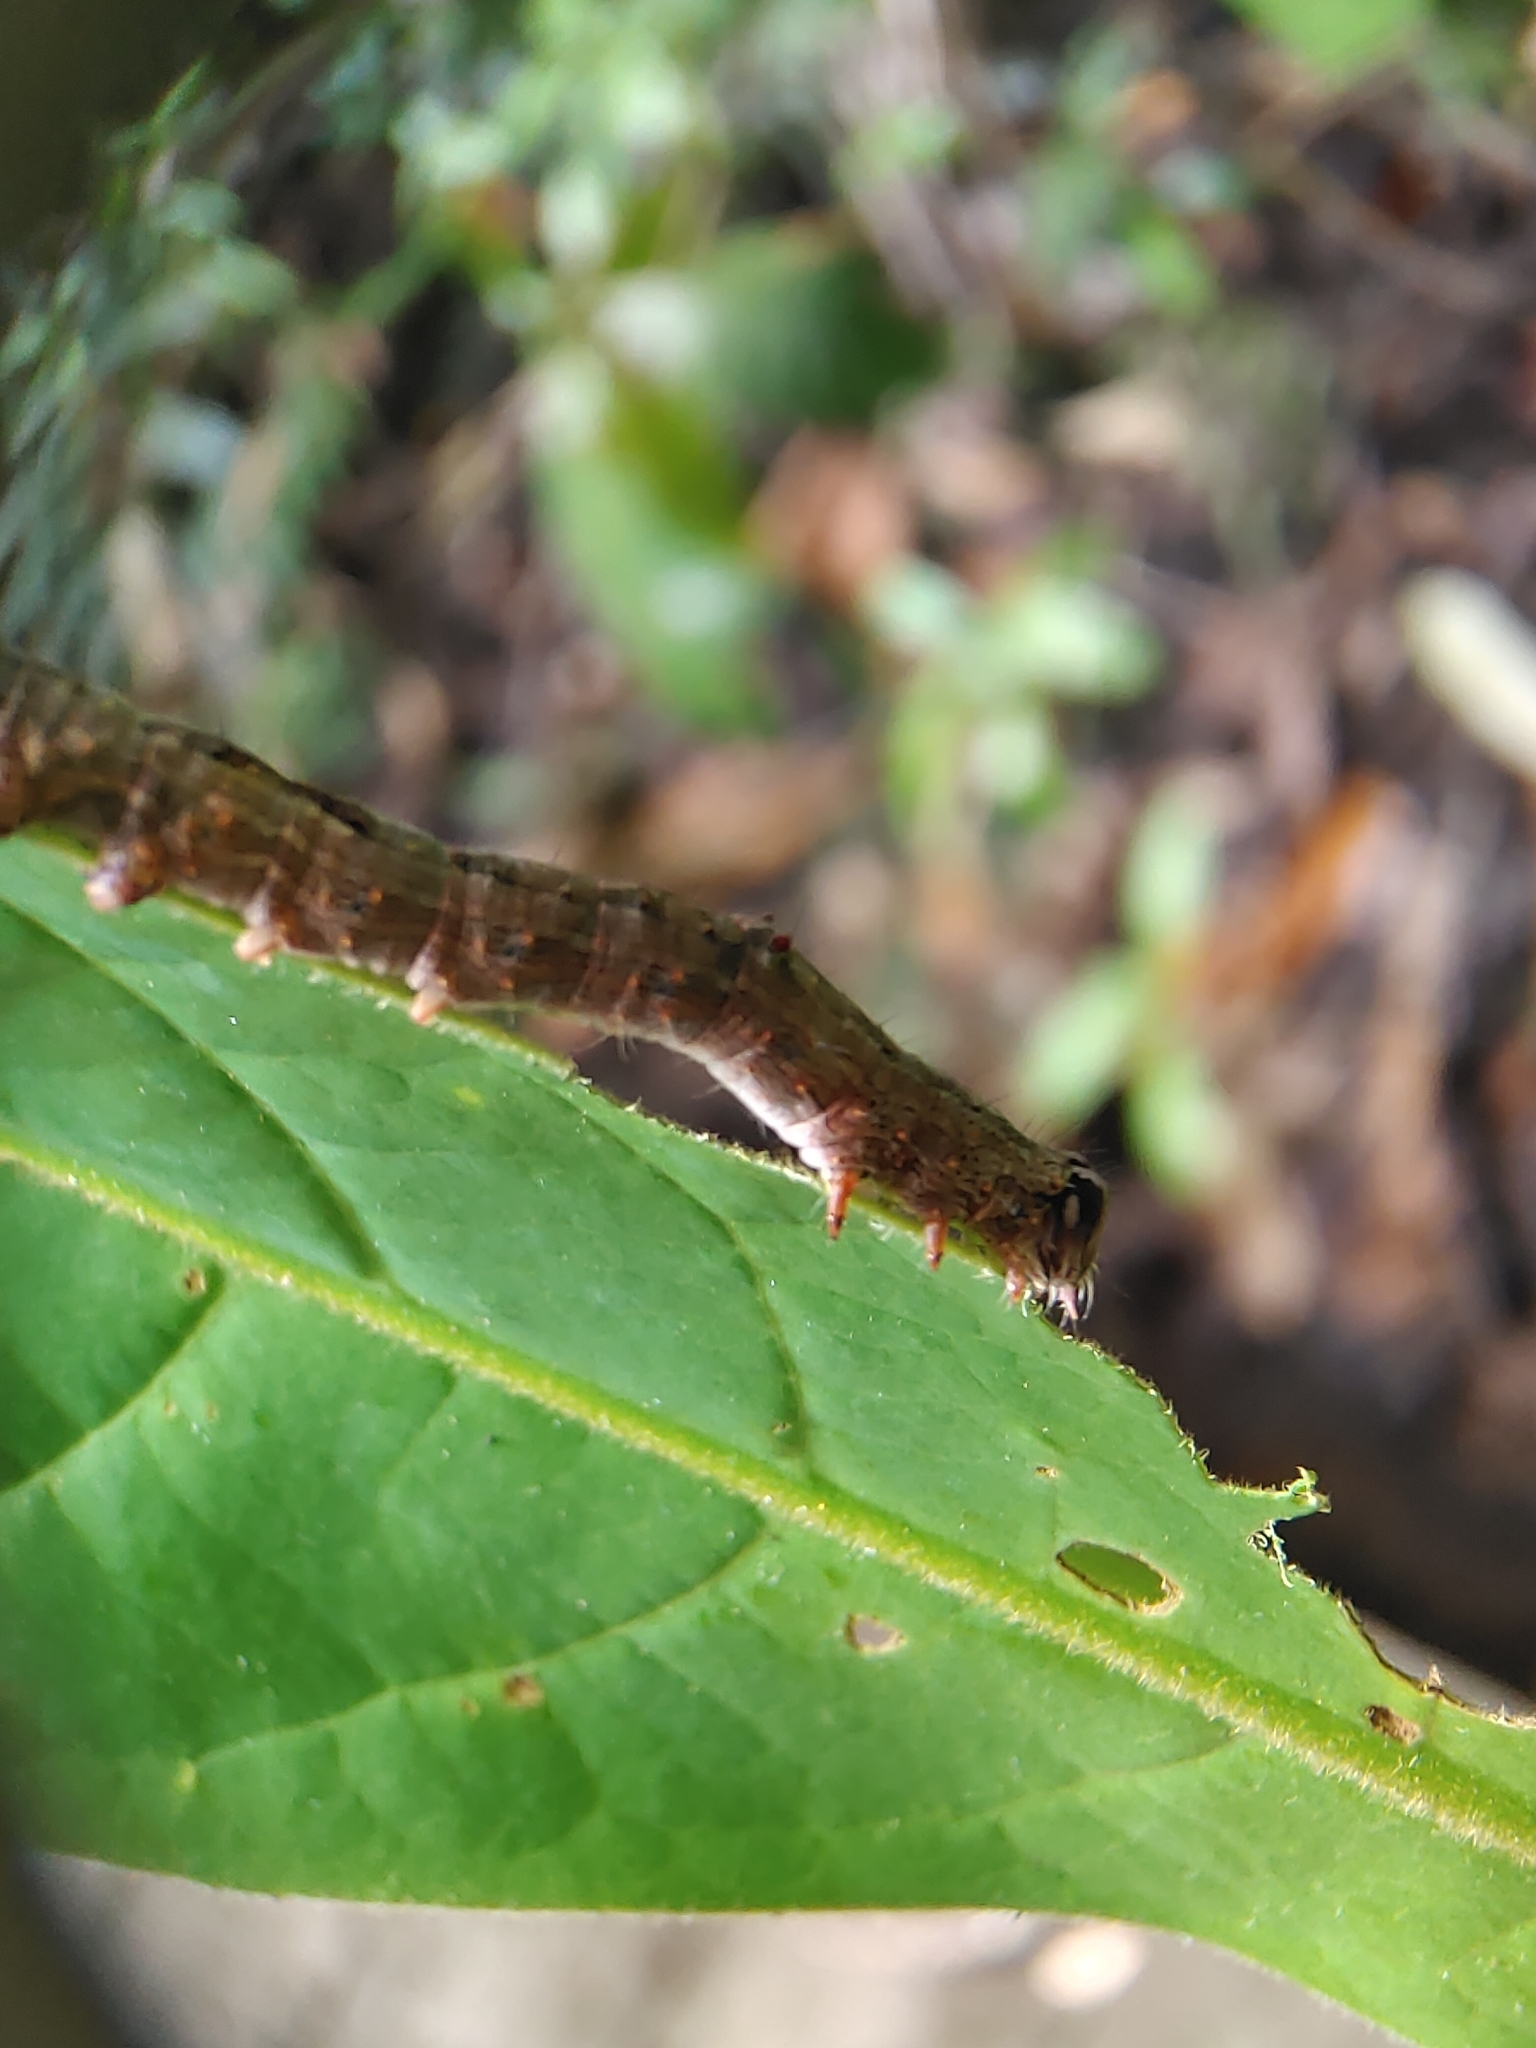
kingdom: Animalia
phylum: Arthropoda
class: Insecta
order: Lepidoptera
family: Erebidae
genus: Achaea
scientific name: Achaea janata
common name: Croton caterpillar
